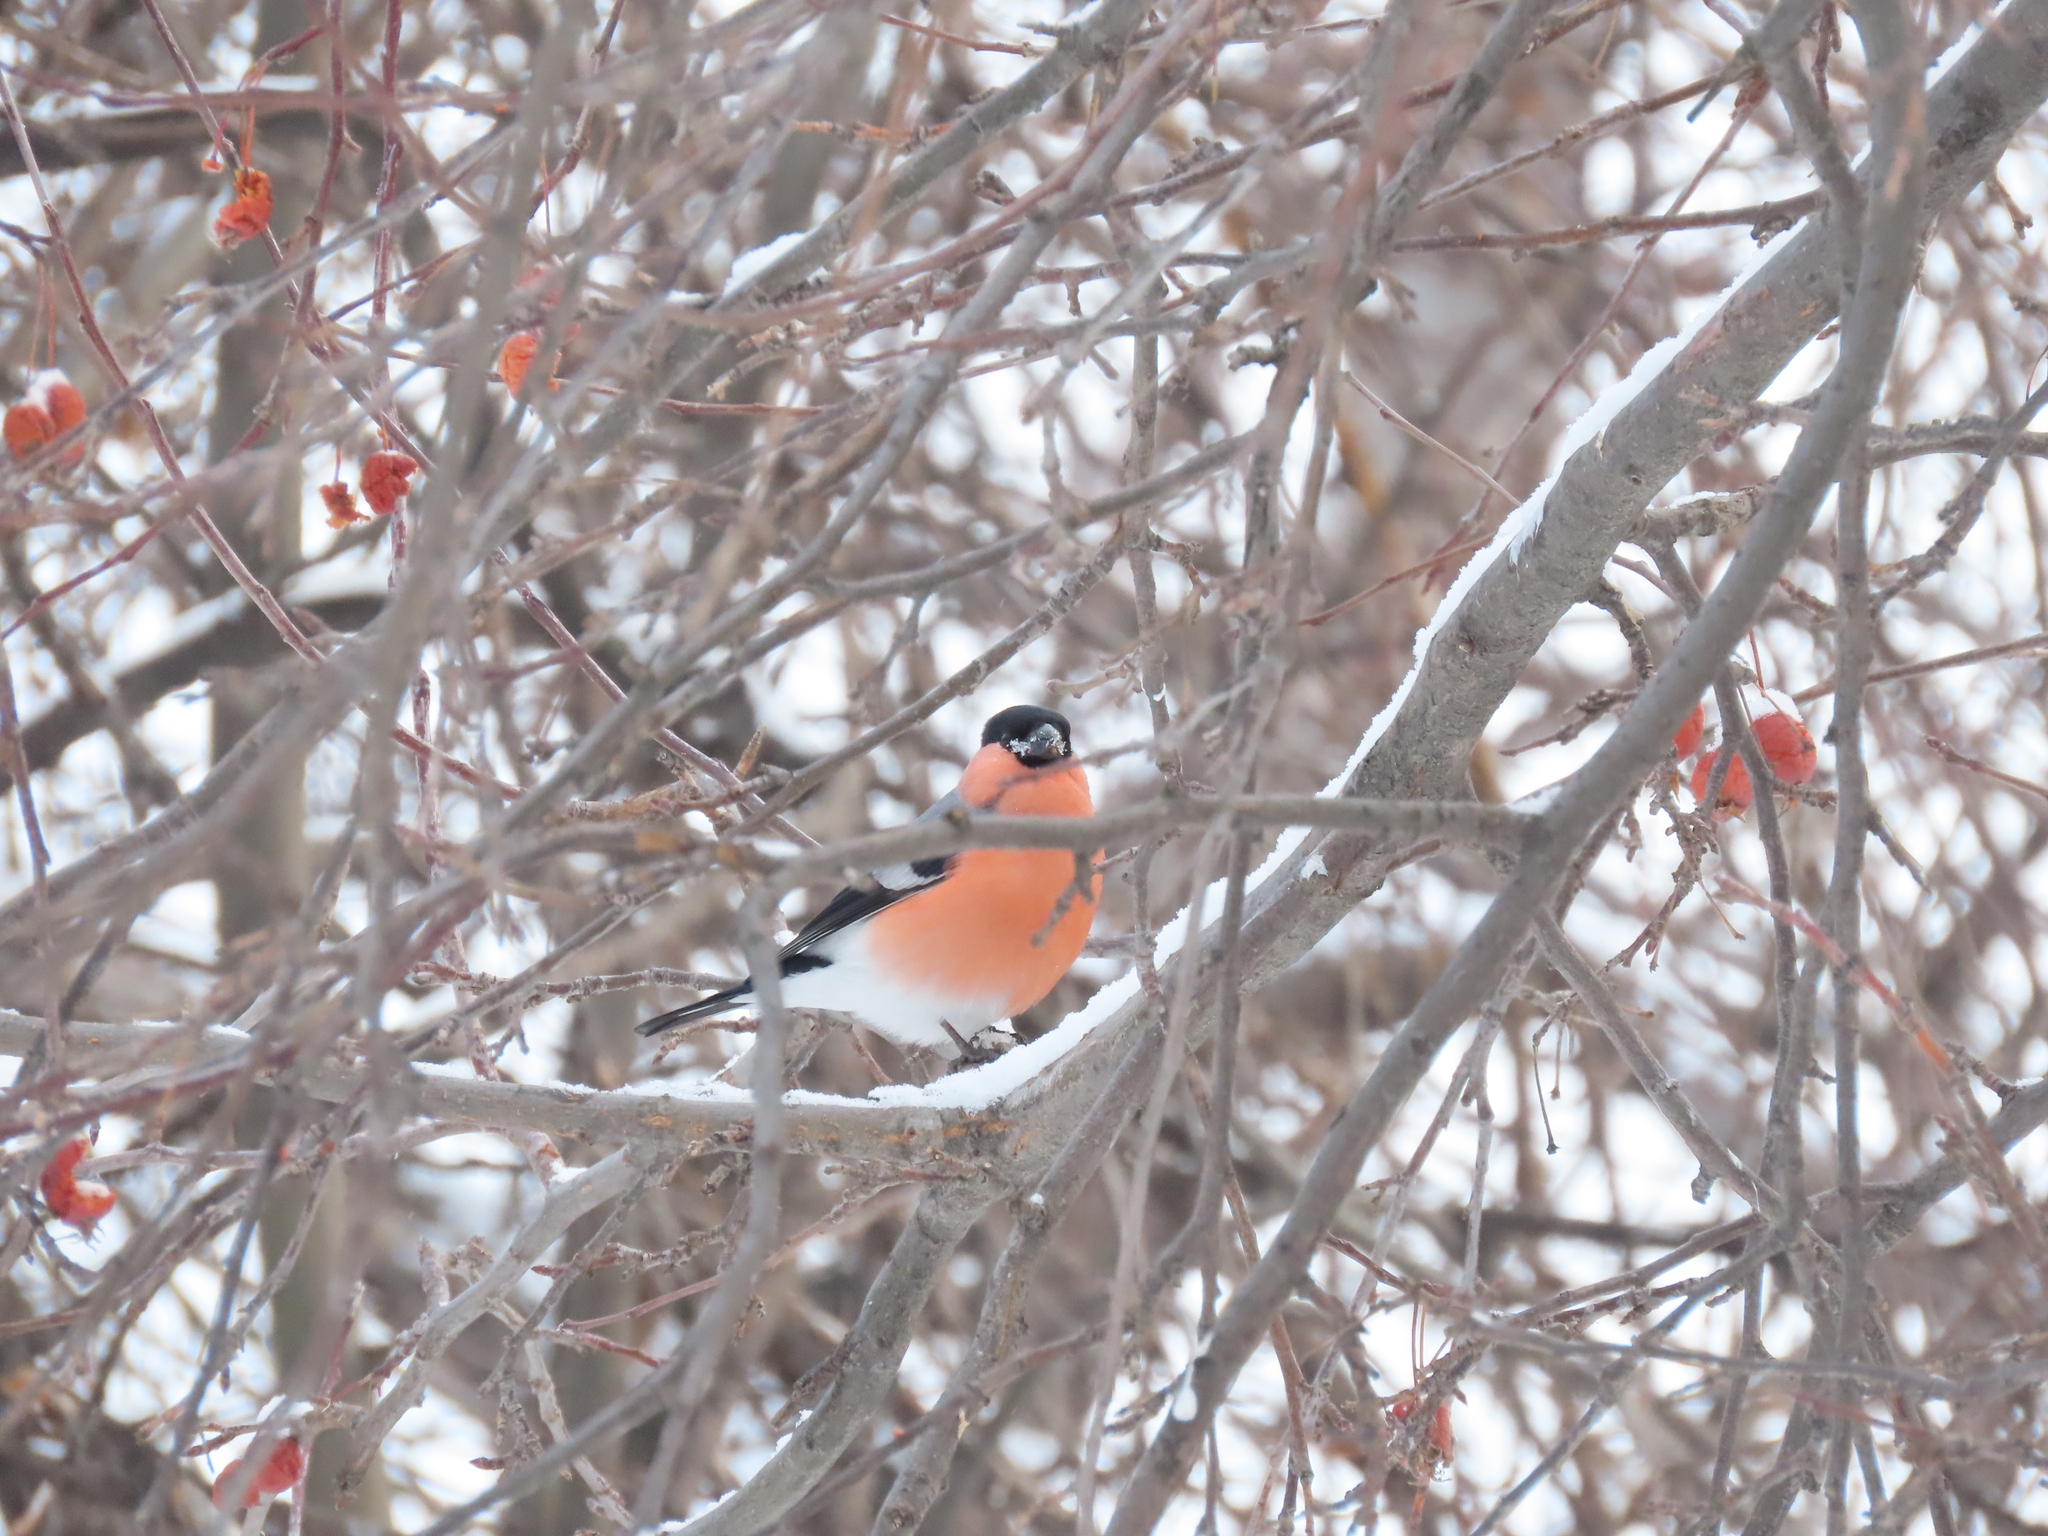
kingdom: Animalia
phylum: Chordata
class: Aves
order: Passeriformes
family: Fringillidae
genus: Pyrrhula
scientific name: Pyrrhula pyrrhula
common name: Eurasian bullfinch
